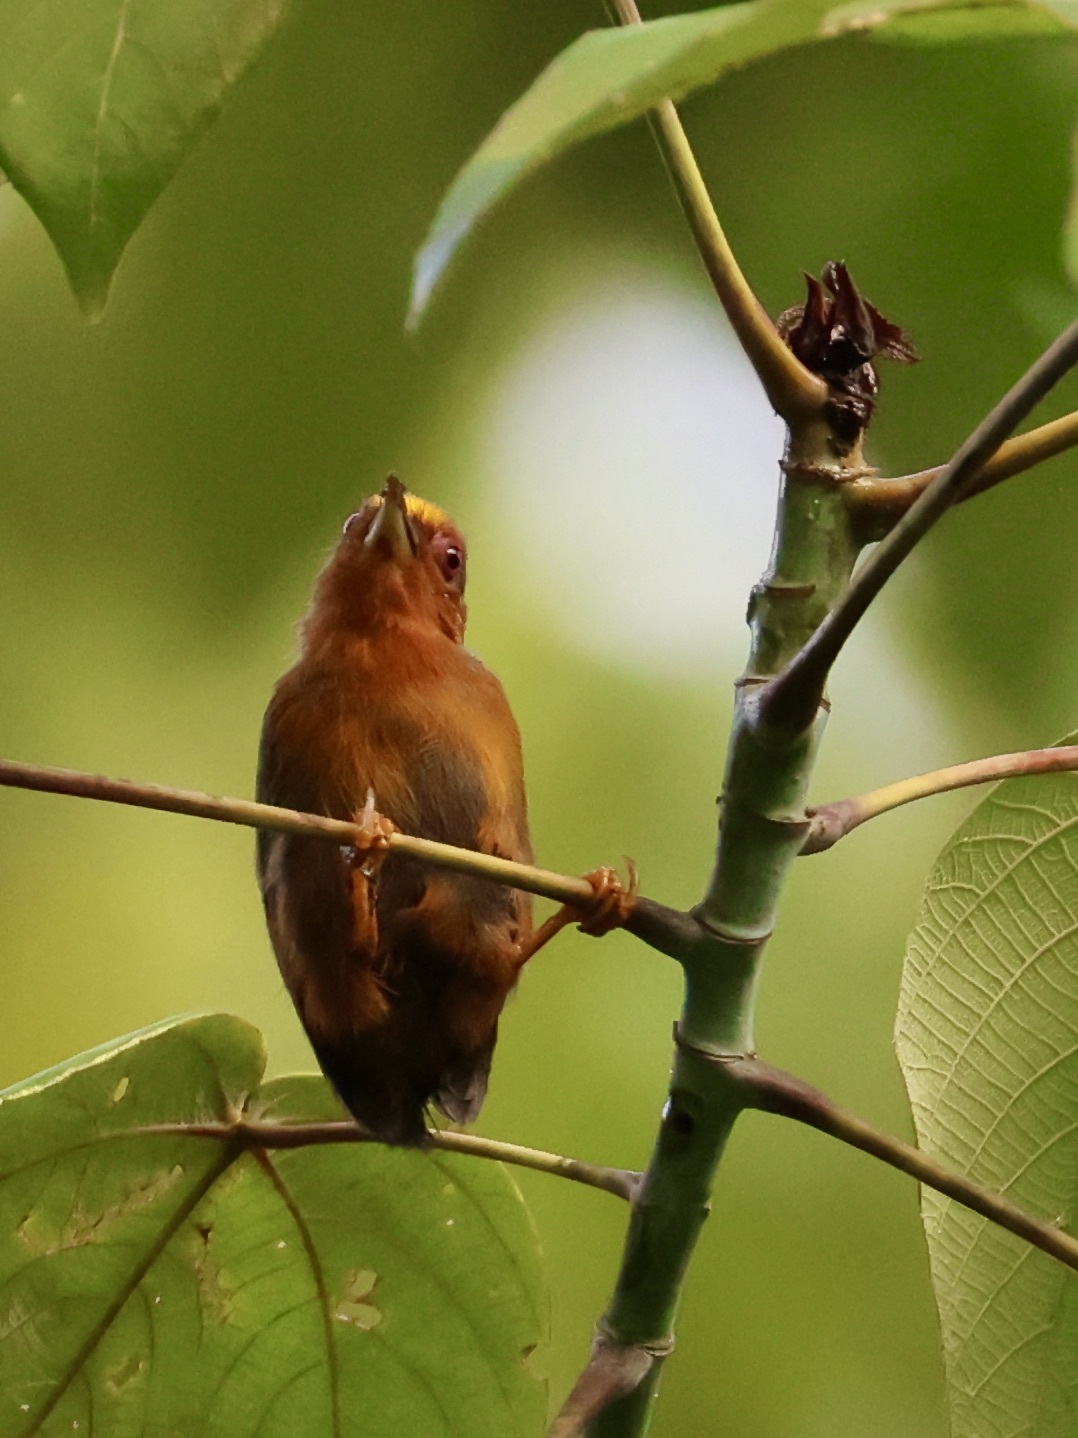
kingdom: Animalia
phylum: Chordata
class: Aves
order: Piciformes
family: Picidae
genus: Sasia
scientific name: Sasia abnormis
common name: Rufous piculet
